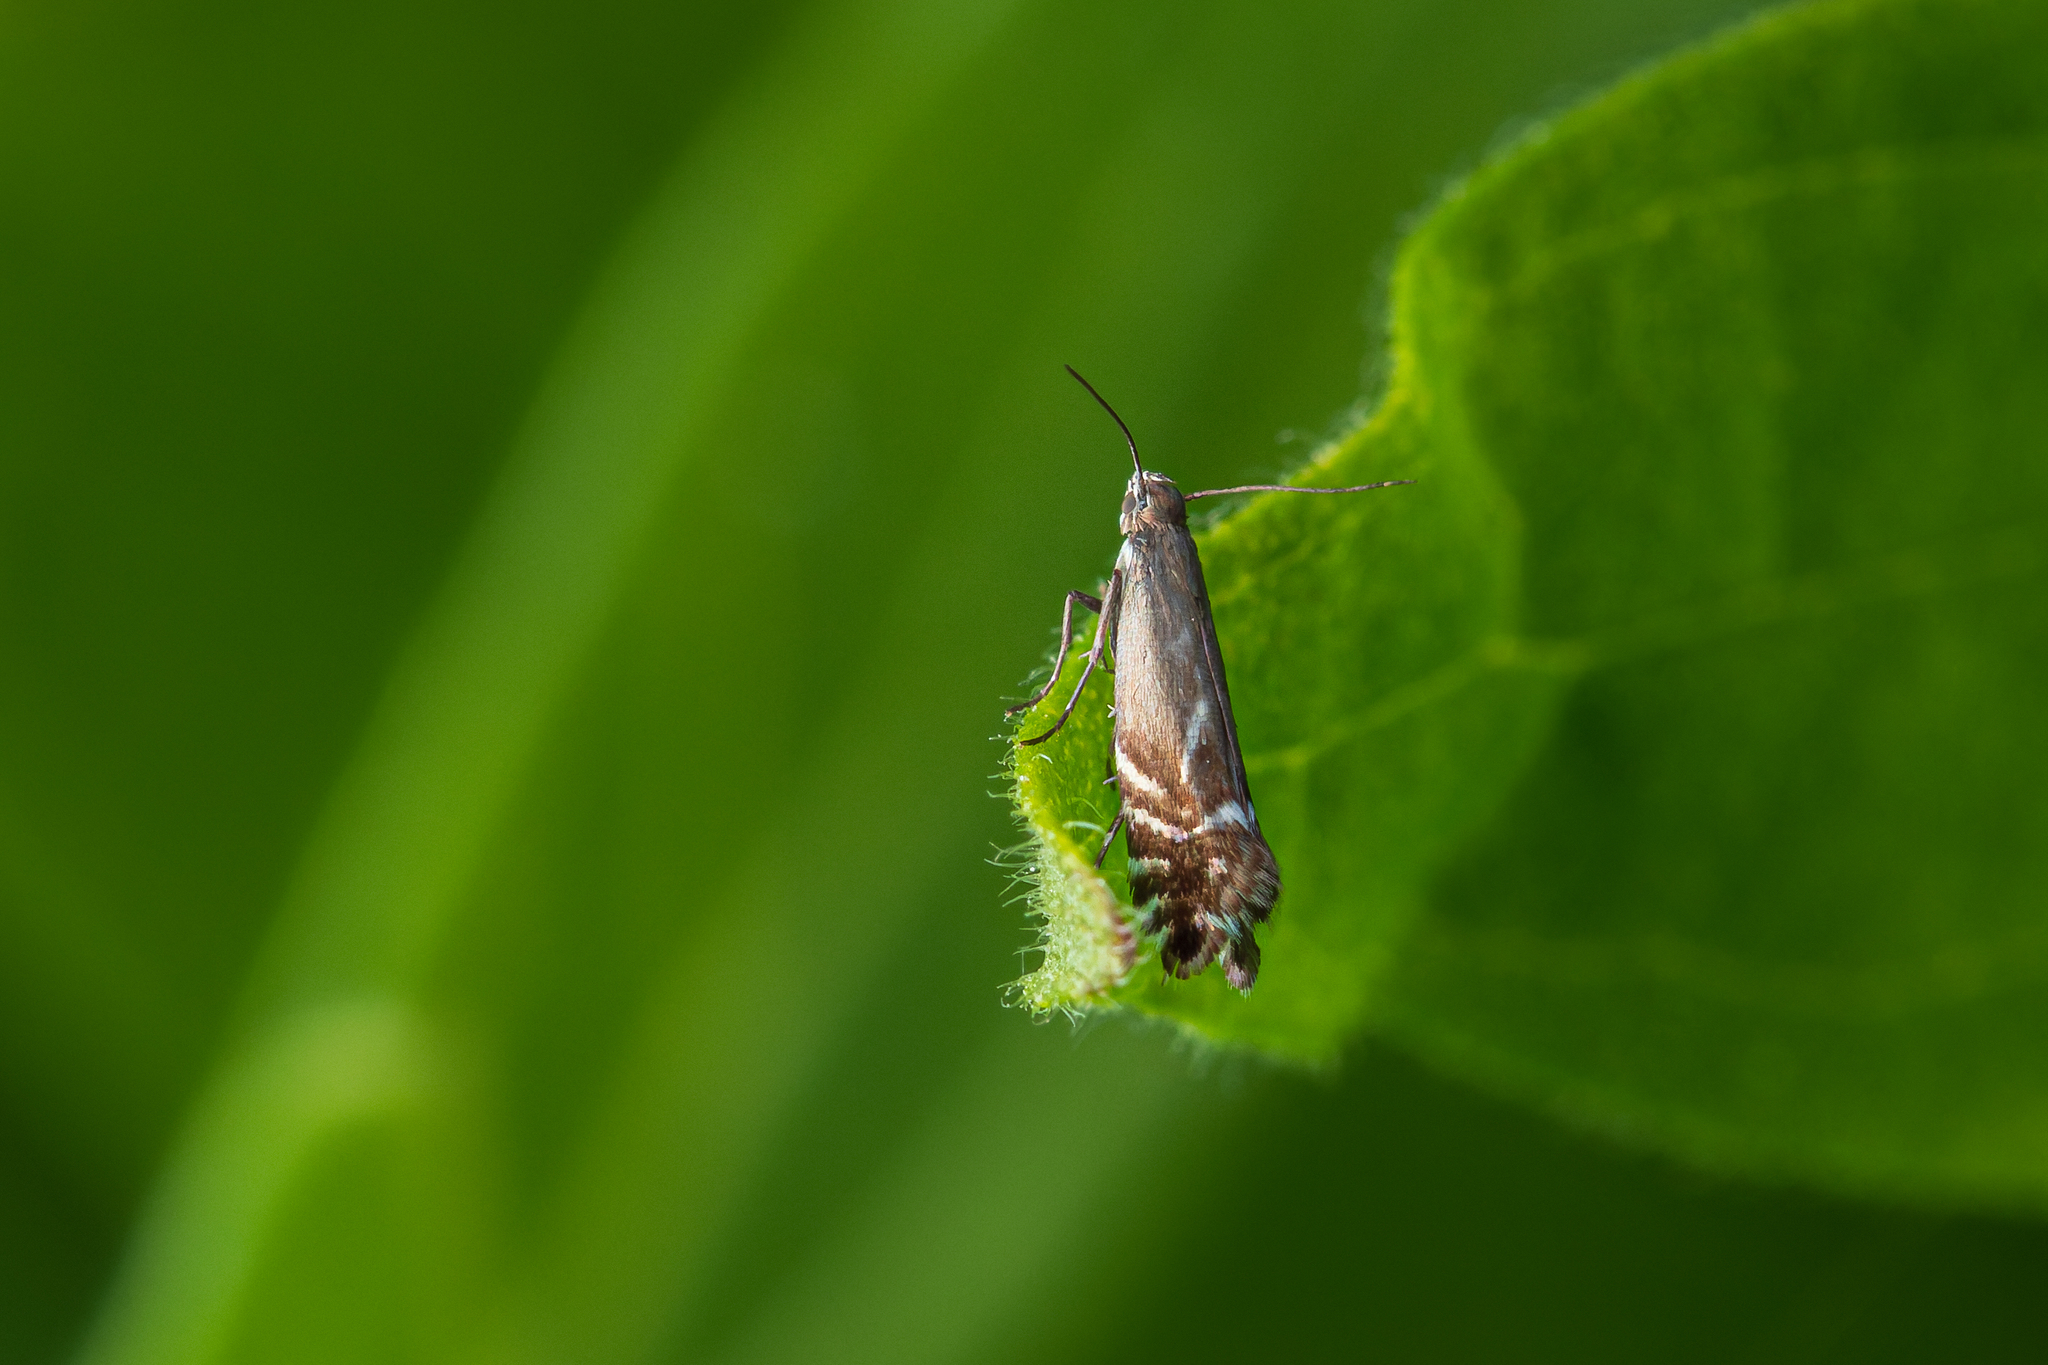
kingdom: Animalia
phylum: Arthropoda
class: Insecta
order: Lepidoptera
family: Glyphipterigidae
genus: Glyphipterix
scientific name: Glyphipterix simpliciella
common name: Cocksfoot moth
